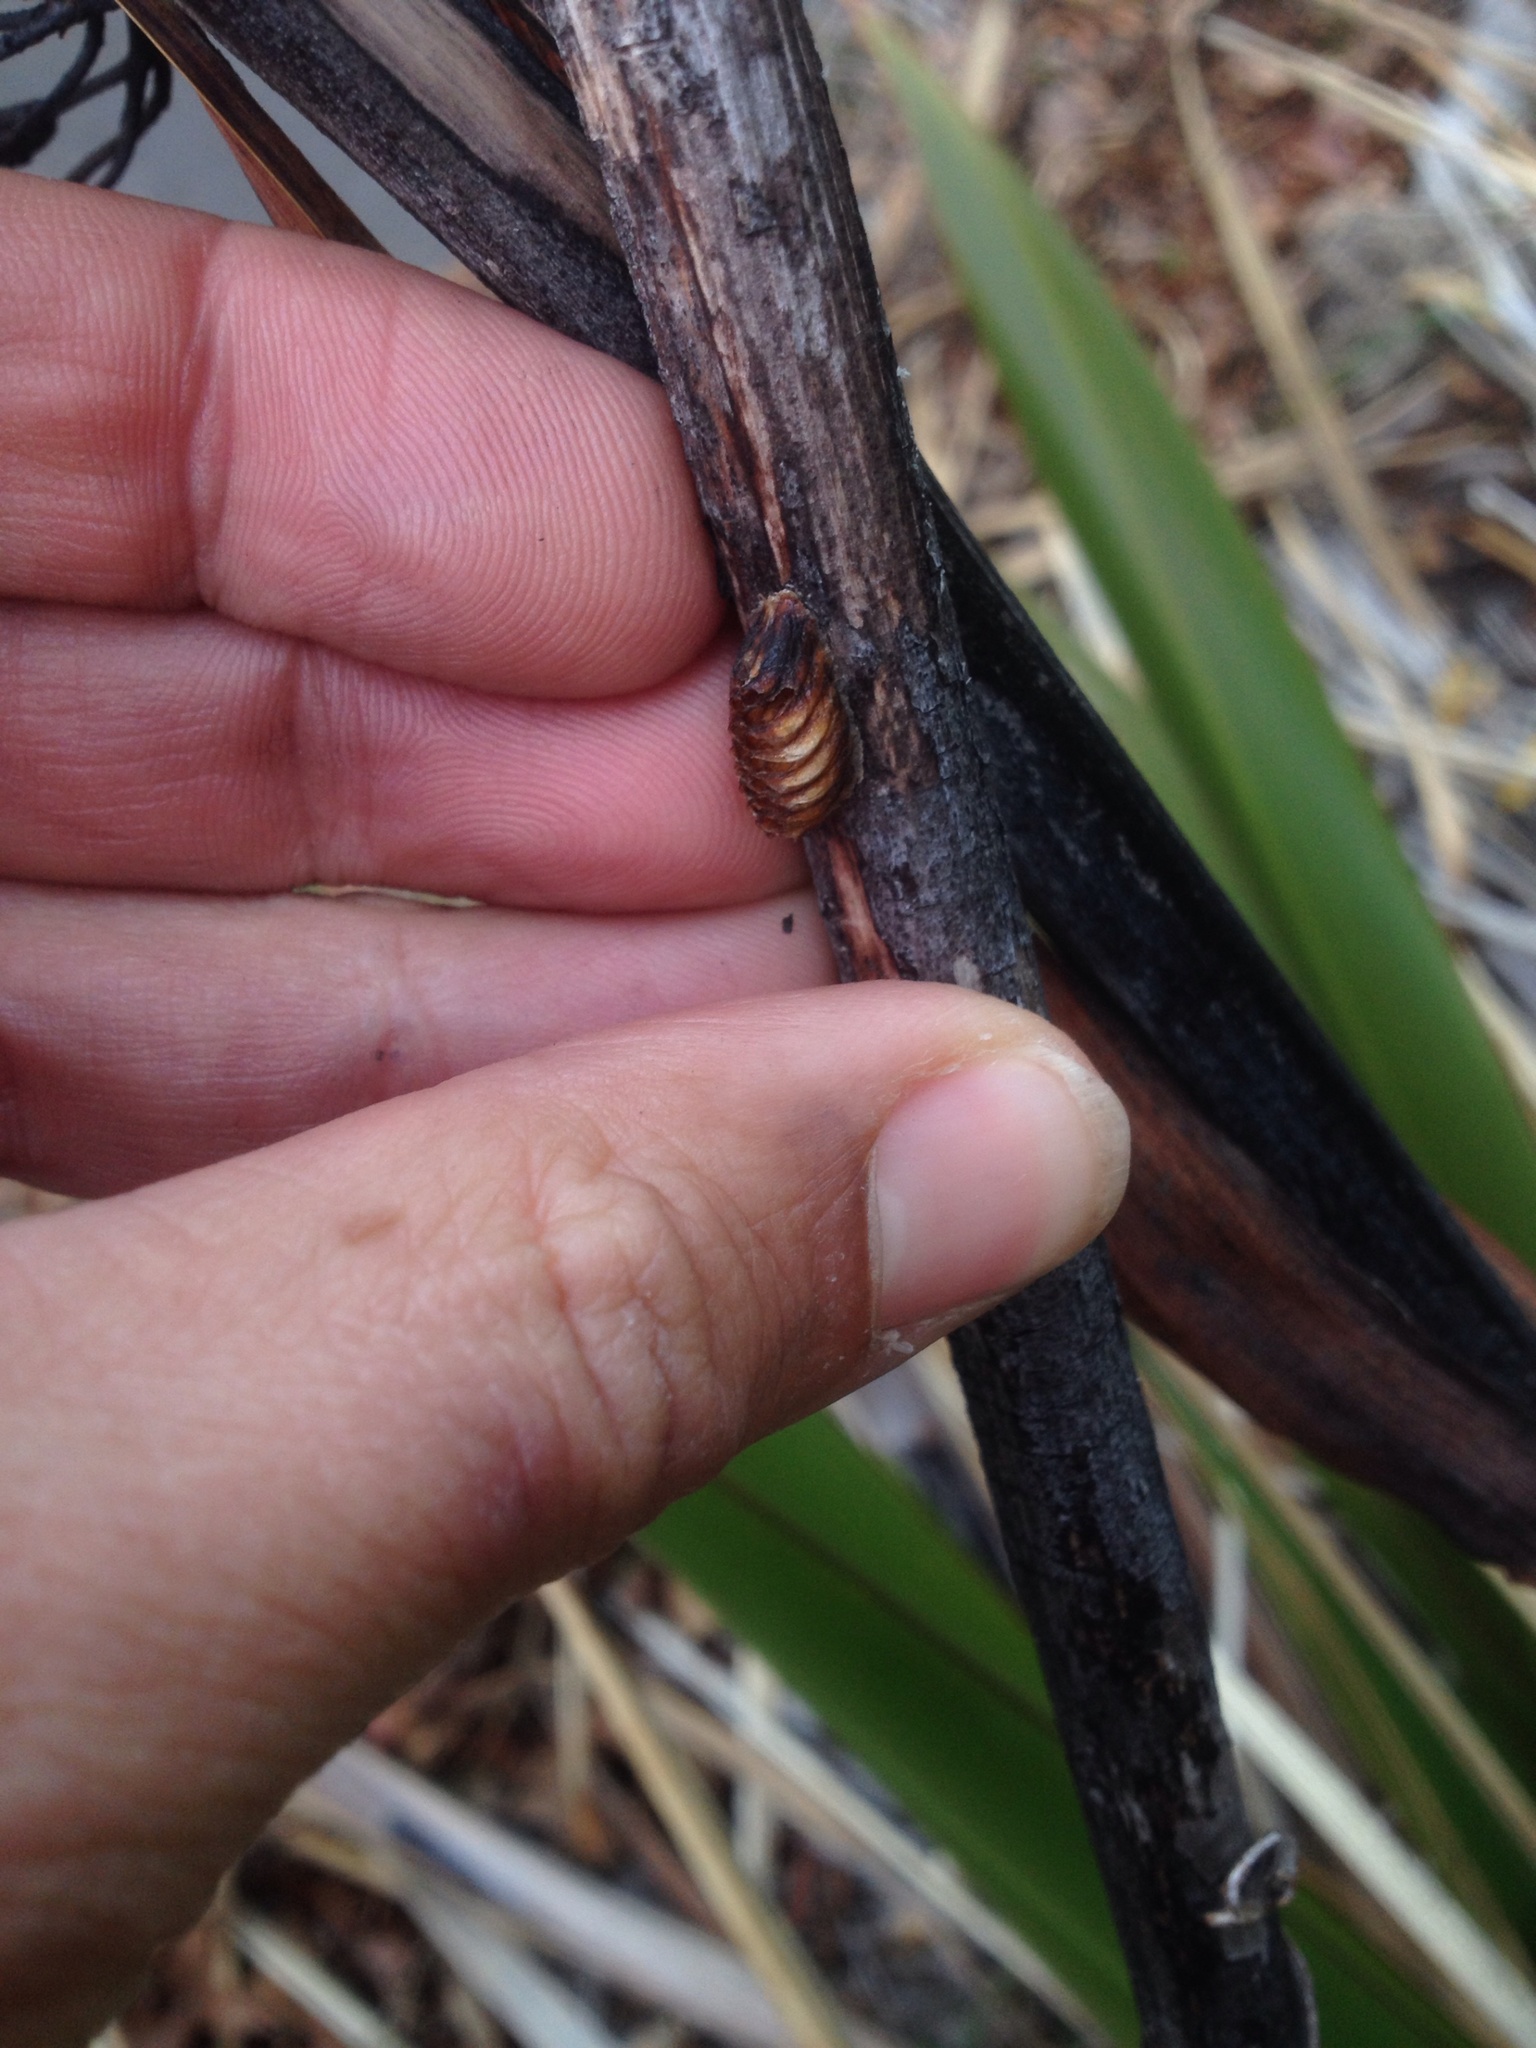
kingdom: Animalia
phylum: Arthropoda
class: Insecta
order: Mantodea
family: Mantidae
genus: Orthodera
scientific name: Orthodera novaezealandiae
